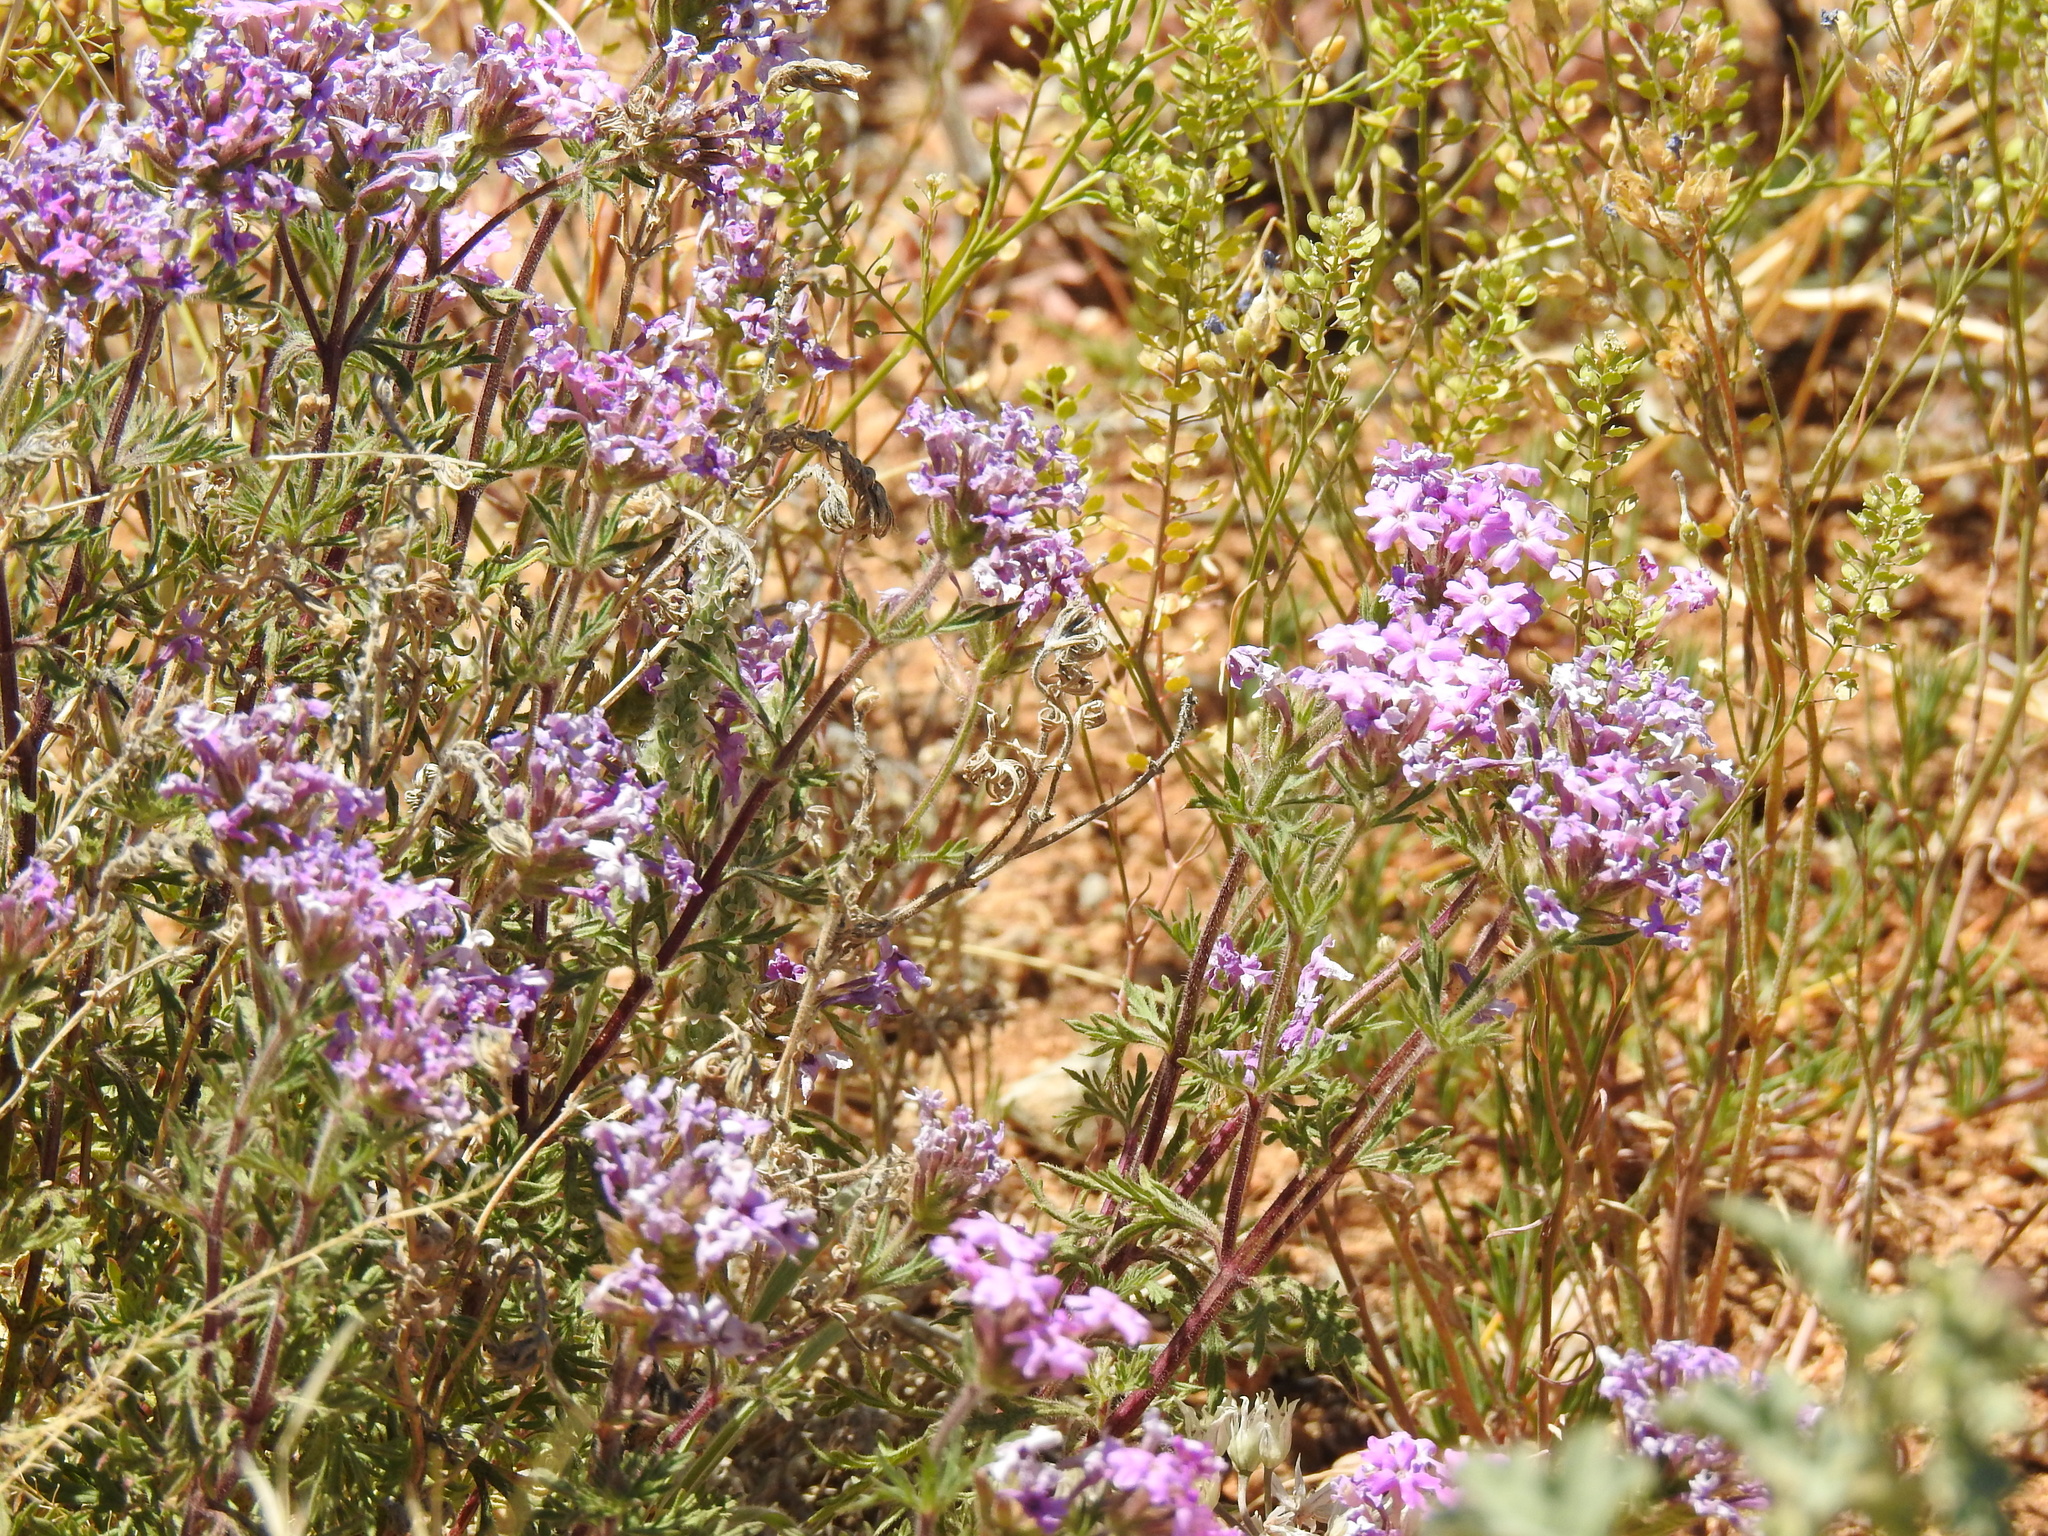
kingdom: Plantae
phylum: Tracheophyta
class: Magnoliopsida
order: Lamiales
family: Verbenaceae
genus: Verbena
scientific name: Verbena bipinnatifida
